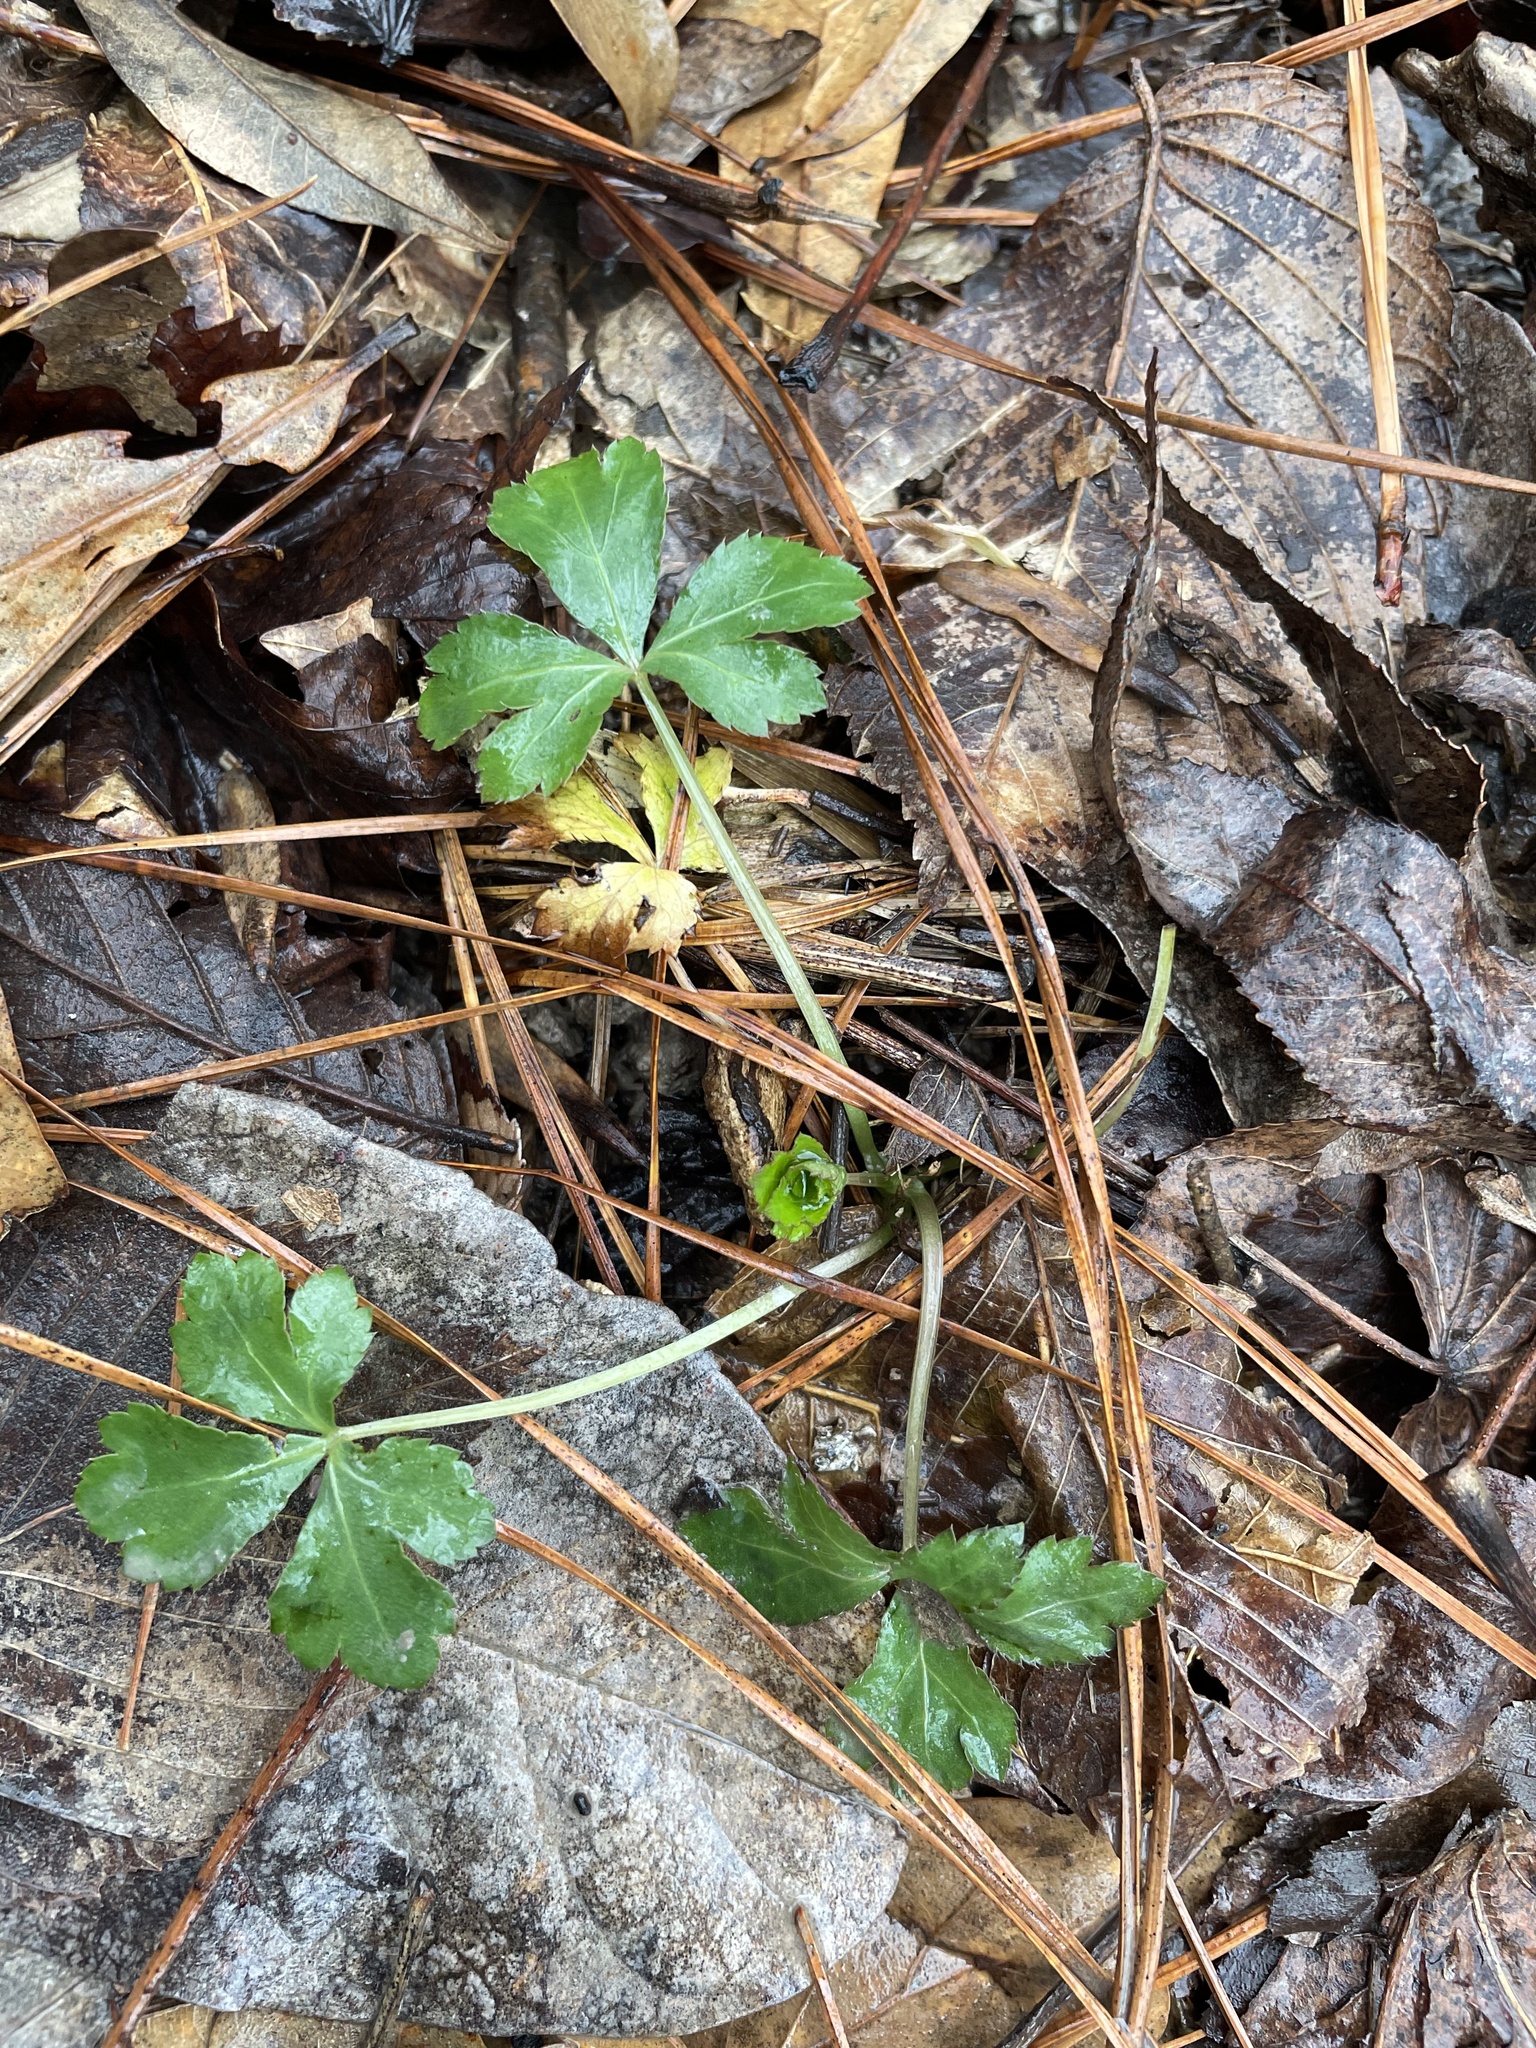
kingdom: Plantae
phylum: Tracheophyta
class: Magnoliopsida
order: Apiales
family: Apiaceae
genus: Sanicula
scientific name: Sanicula canadensis
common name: Canada sanicle
